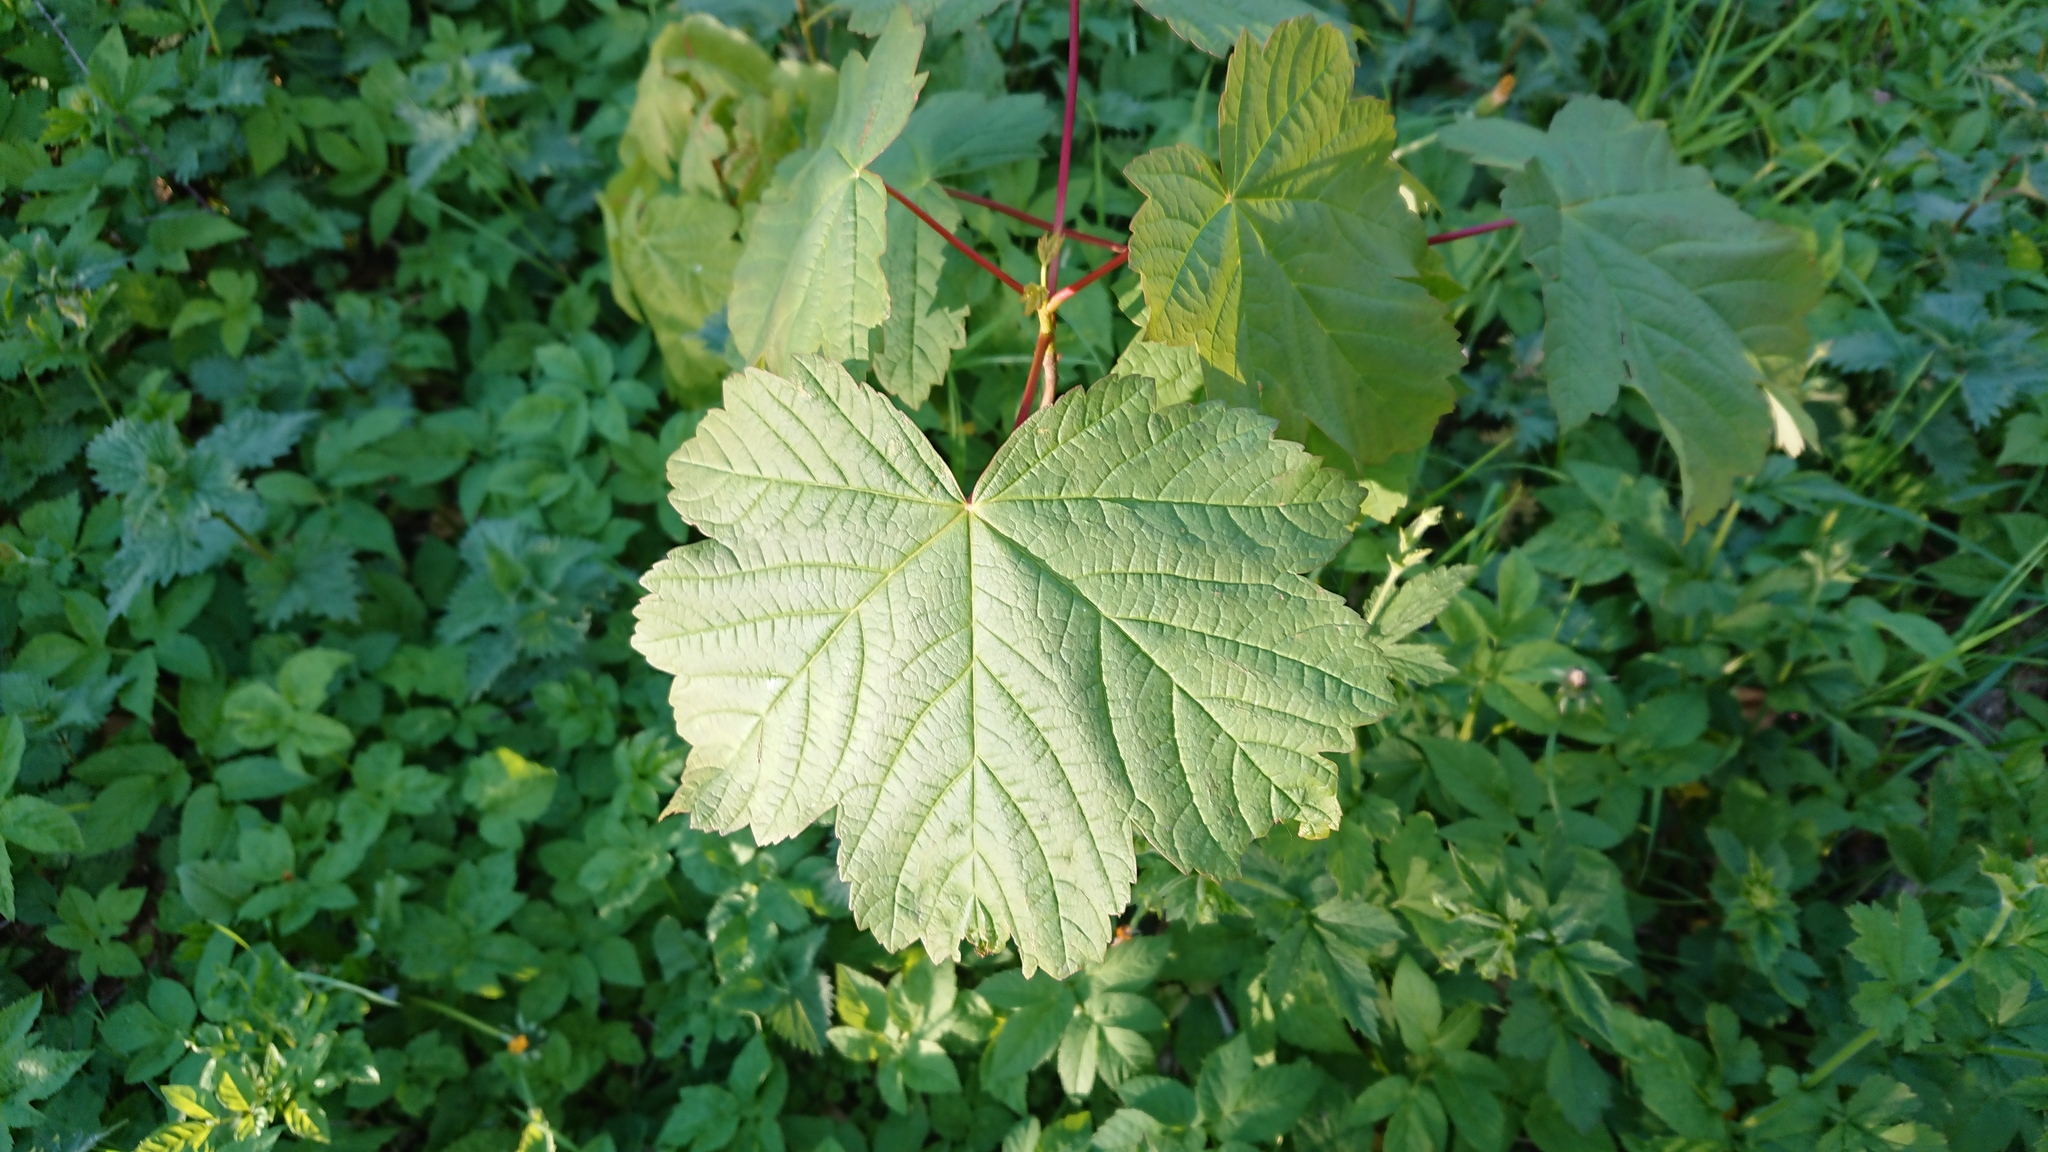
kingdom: Plantae
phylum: Tracheophyta
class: Magnoliopsida
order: Sapindales
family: Sapindaceae
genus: Acer
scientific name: Acer pseudoplatanus
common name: Sycamore
